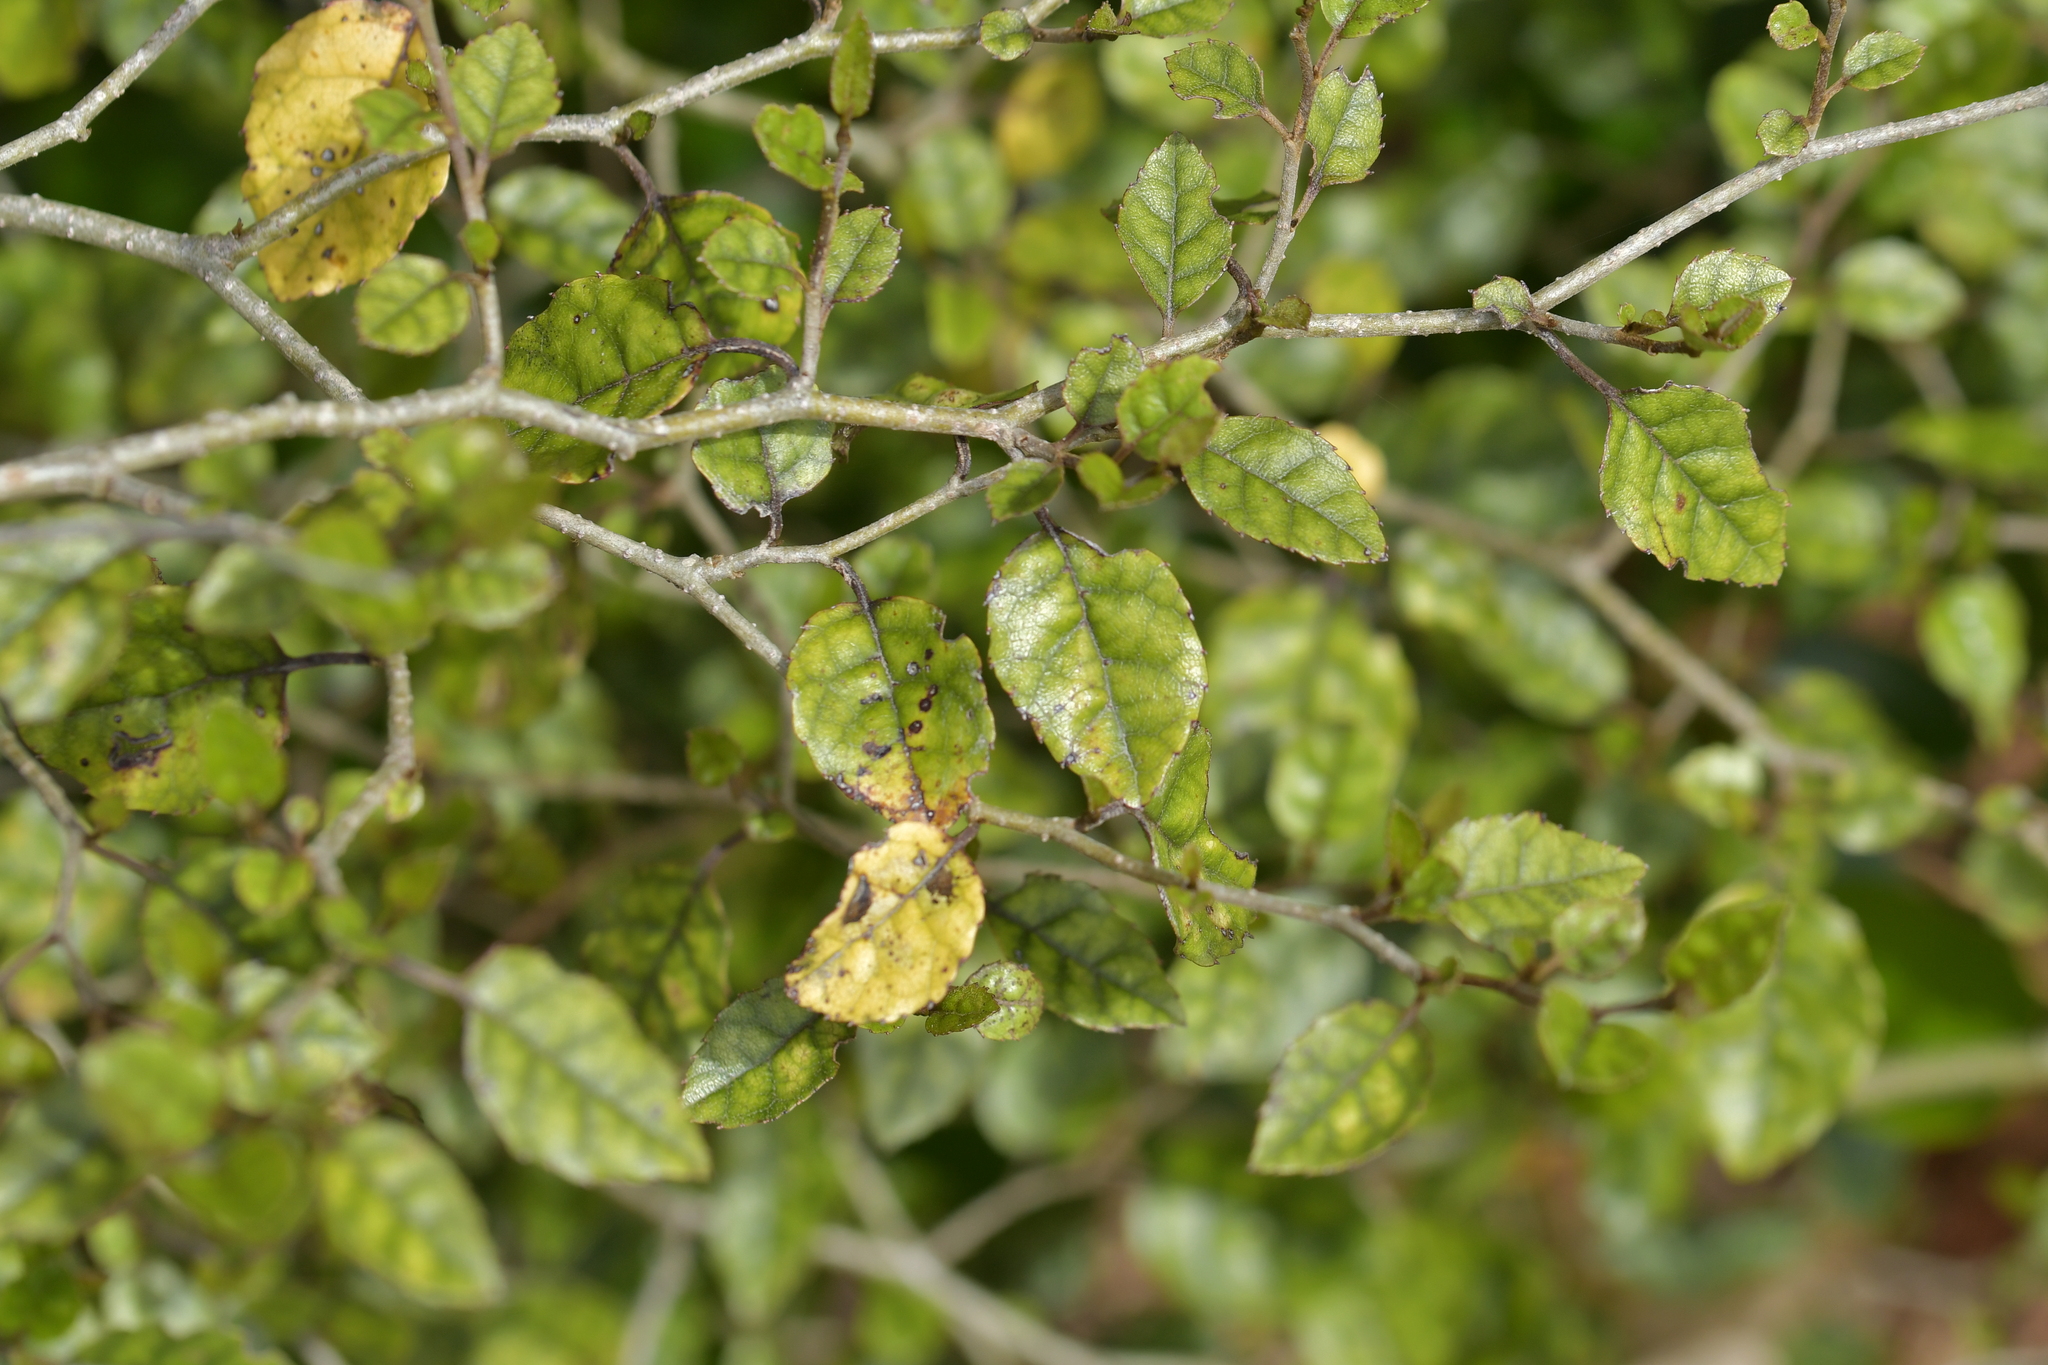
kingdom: Plantae
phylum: Tracheophyta
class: Magnoliopsida
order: Asterales
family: Rousseaceae
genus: Carpodetus
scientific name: Carpodetus serratus
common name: White mapau
